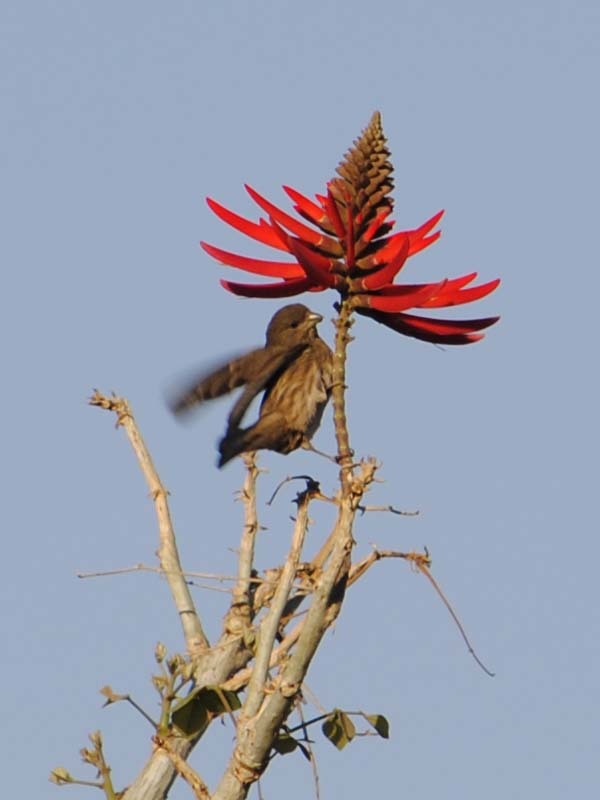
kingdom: Animalia
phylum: Chordata
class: Aves
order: Passeriformes
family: Fringillidae
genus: Haemorhous
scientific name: Haemorhous mexicanus
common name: House finch
